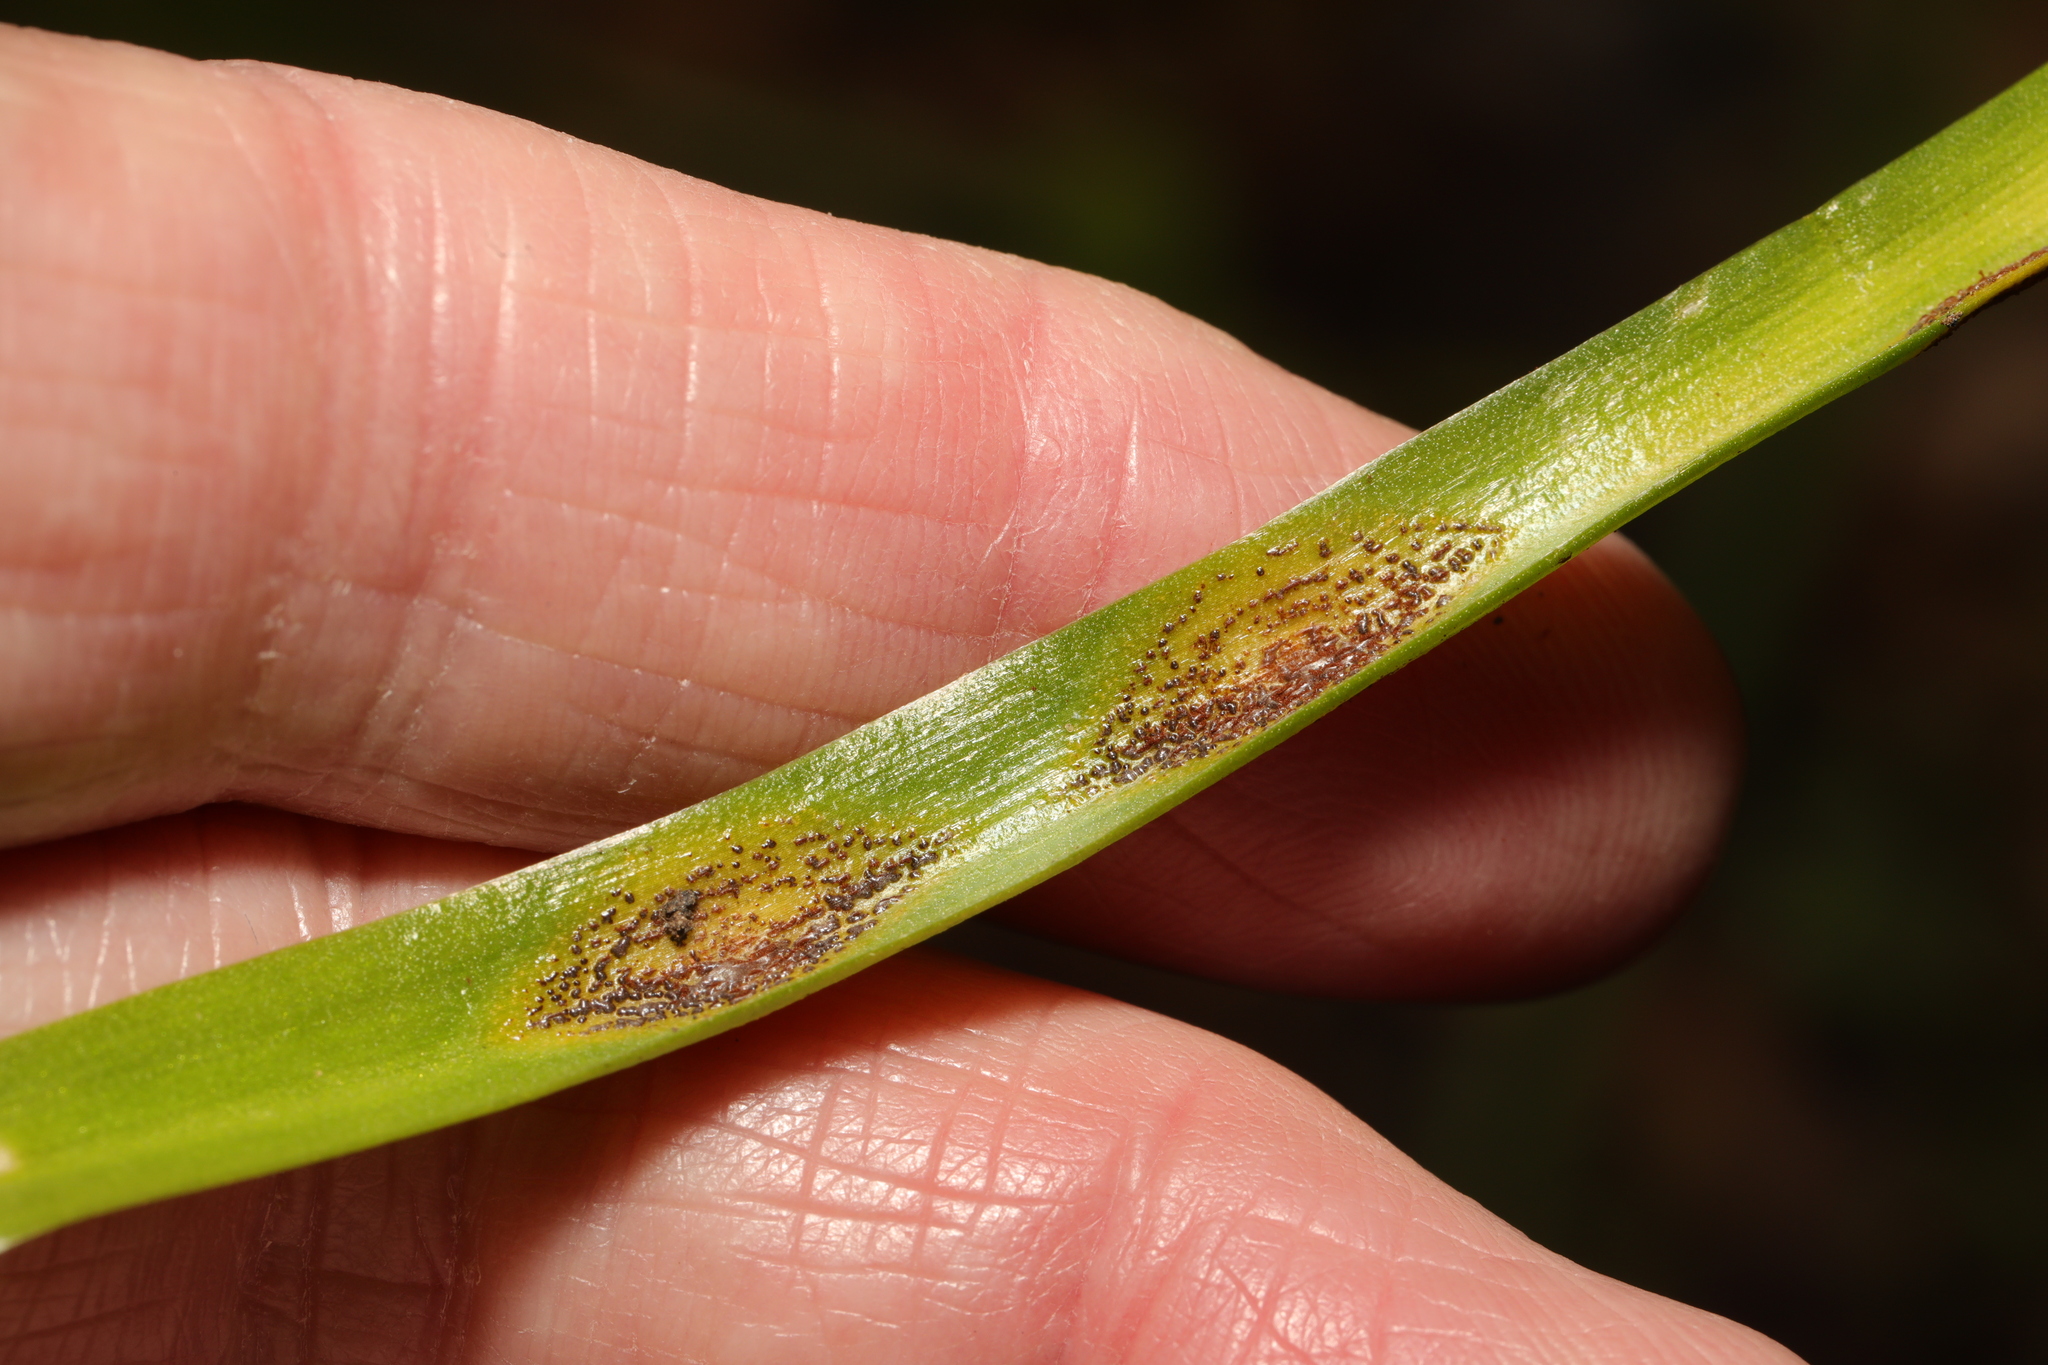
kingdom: Fungi
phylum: Basidiomycota
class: Pucciniomycetes
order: Pucciniales
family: Pucciniaceae
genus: Uromyces
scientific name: Uromyces hyacinthi
